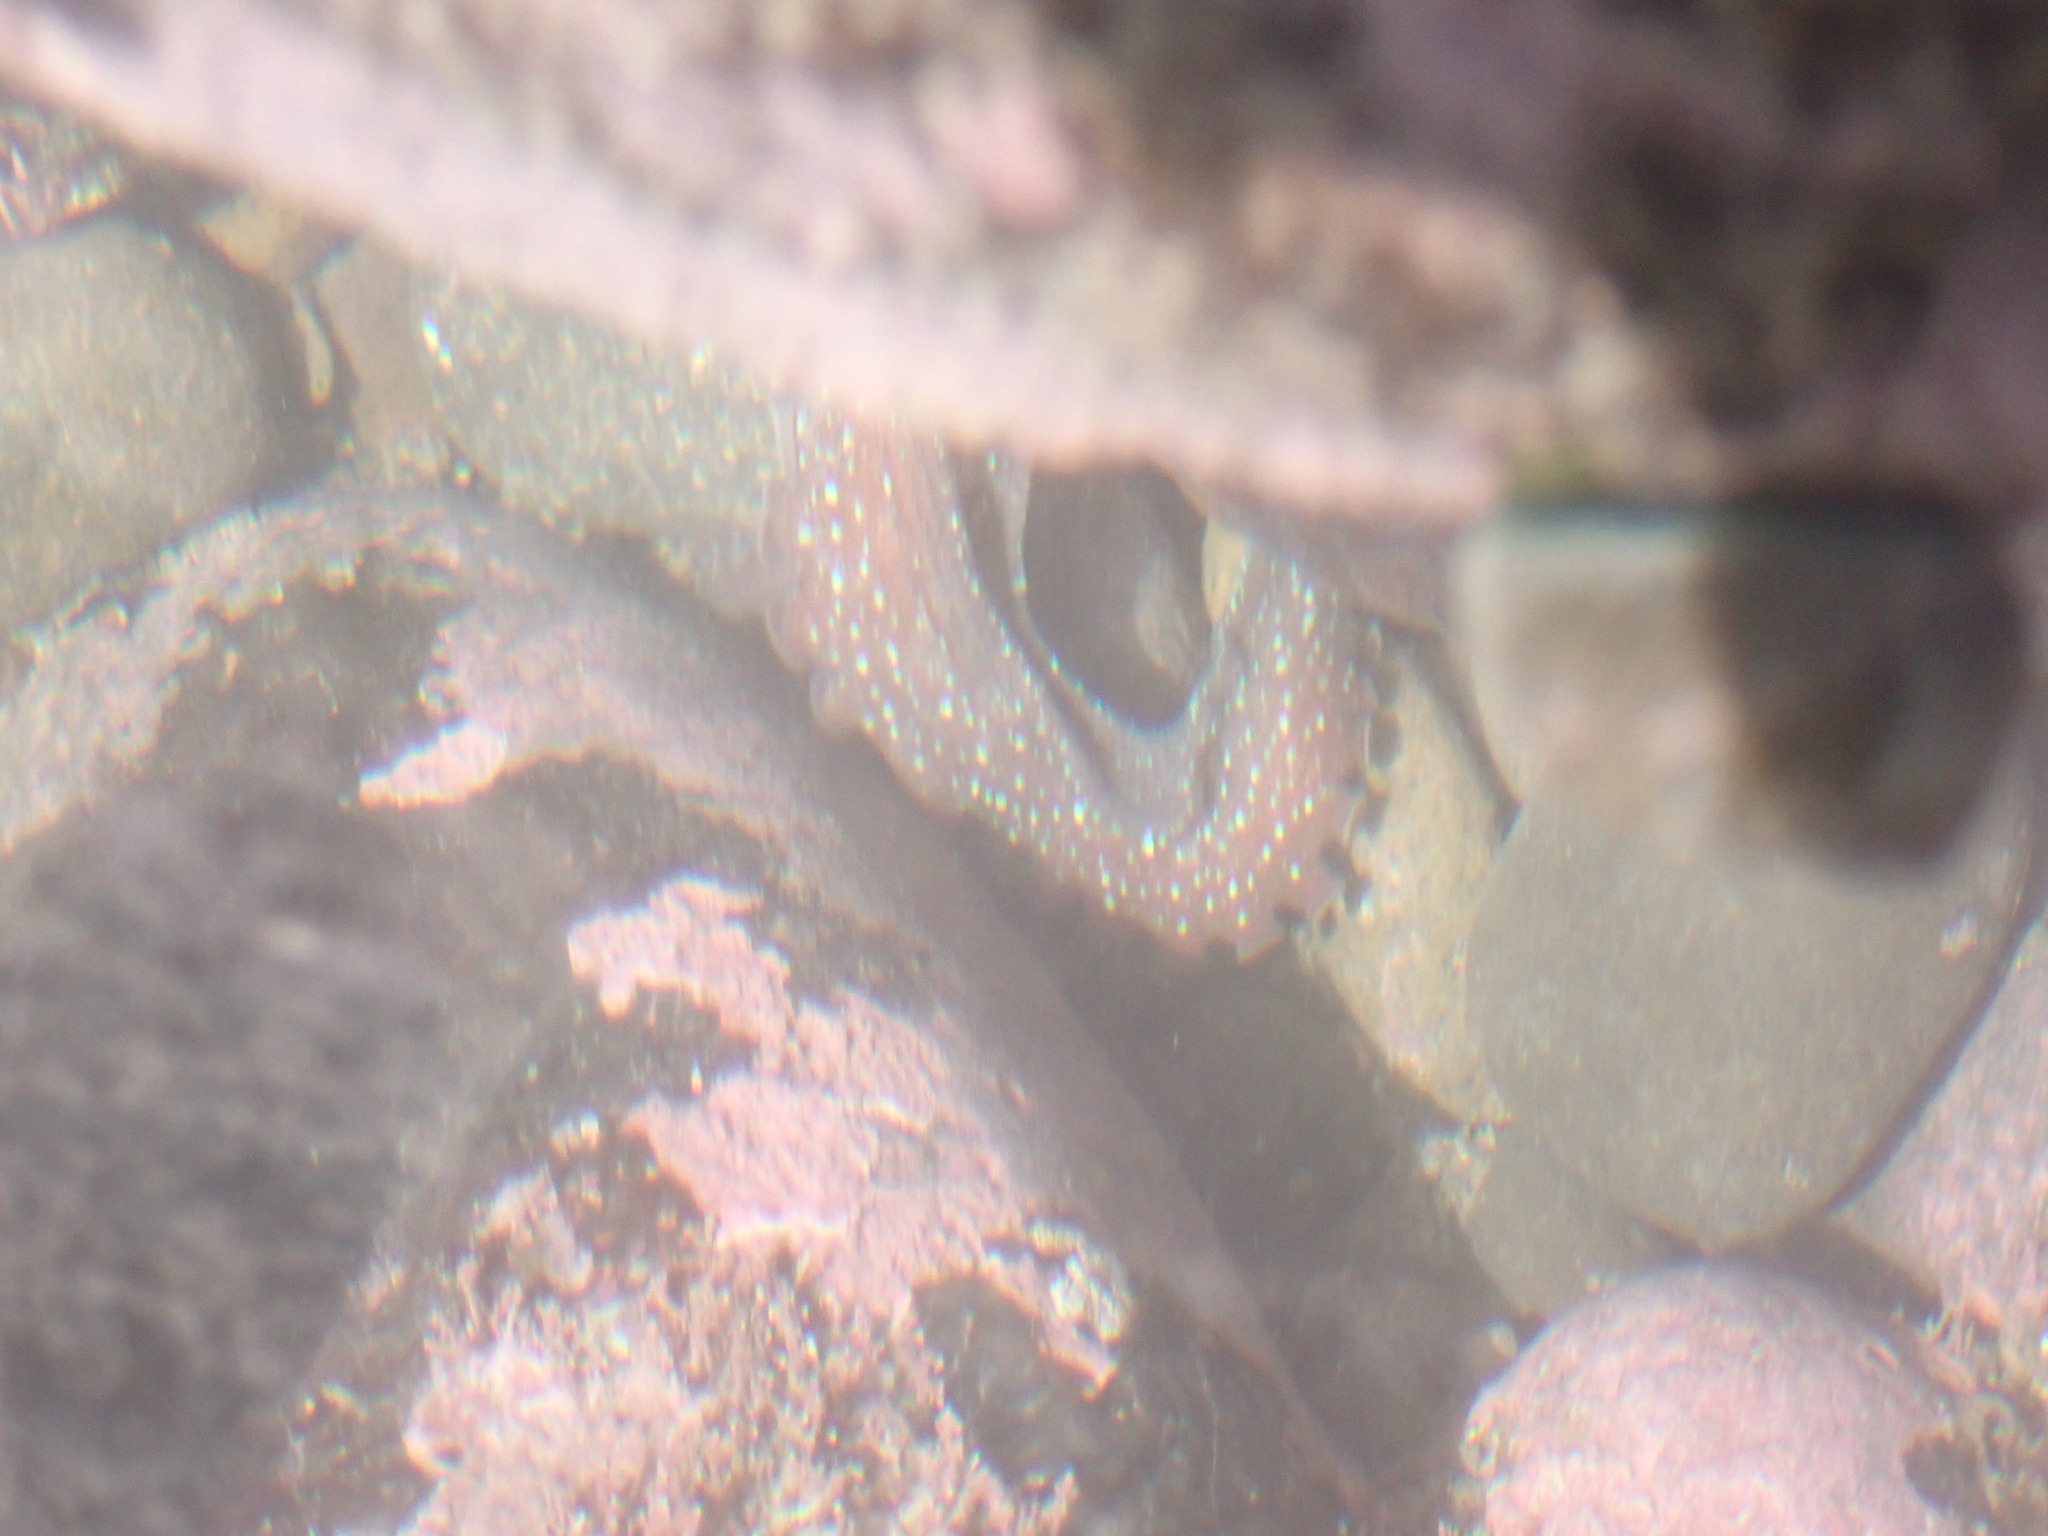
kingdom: Animalia
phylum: Mollusca
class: Cephalopoda
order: Octopoda
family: Octopodidae
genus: Macroctopus
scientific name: Macroctopus maorum
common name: Maori octopus
